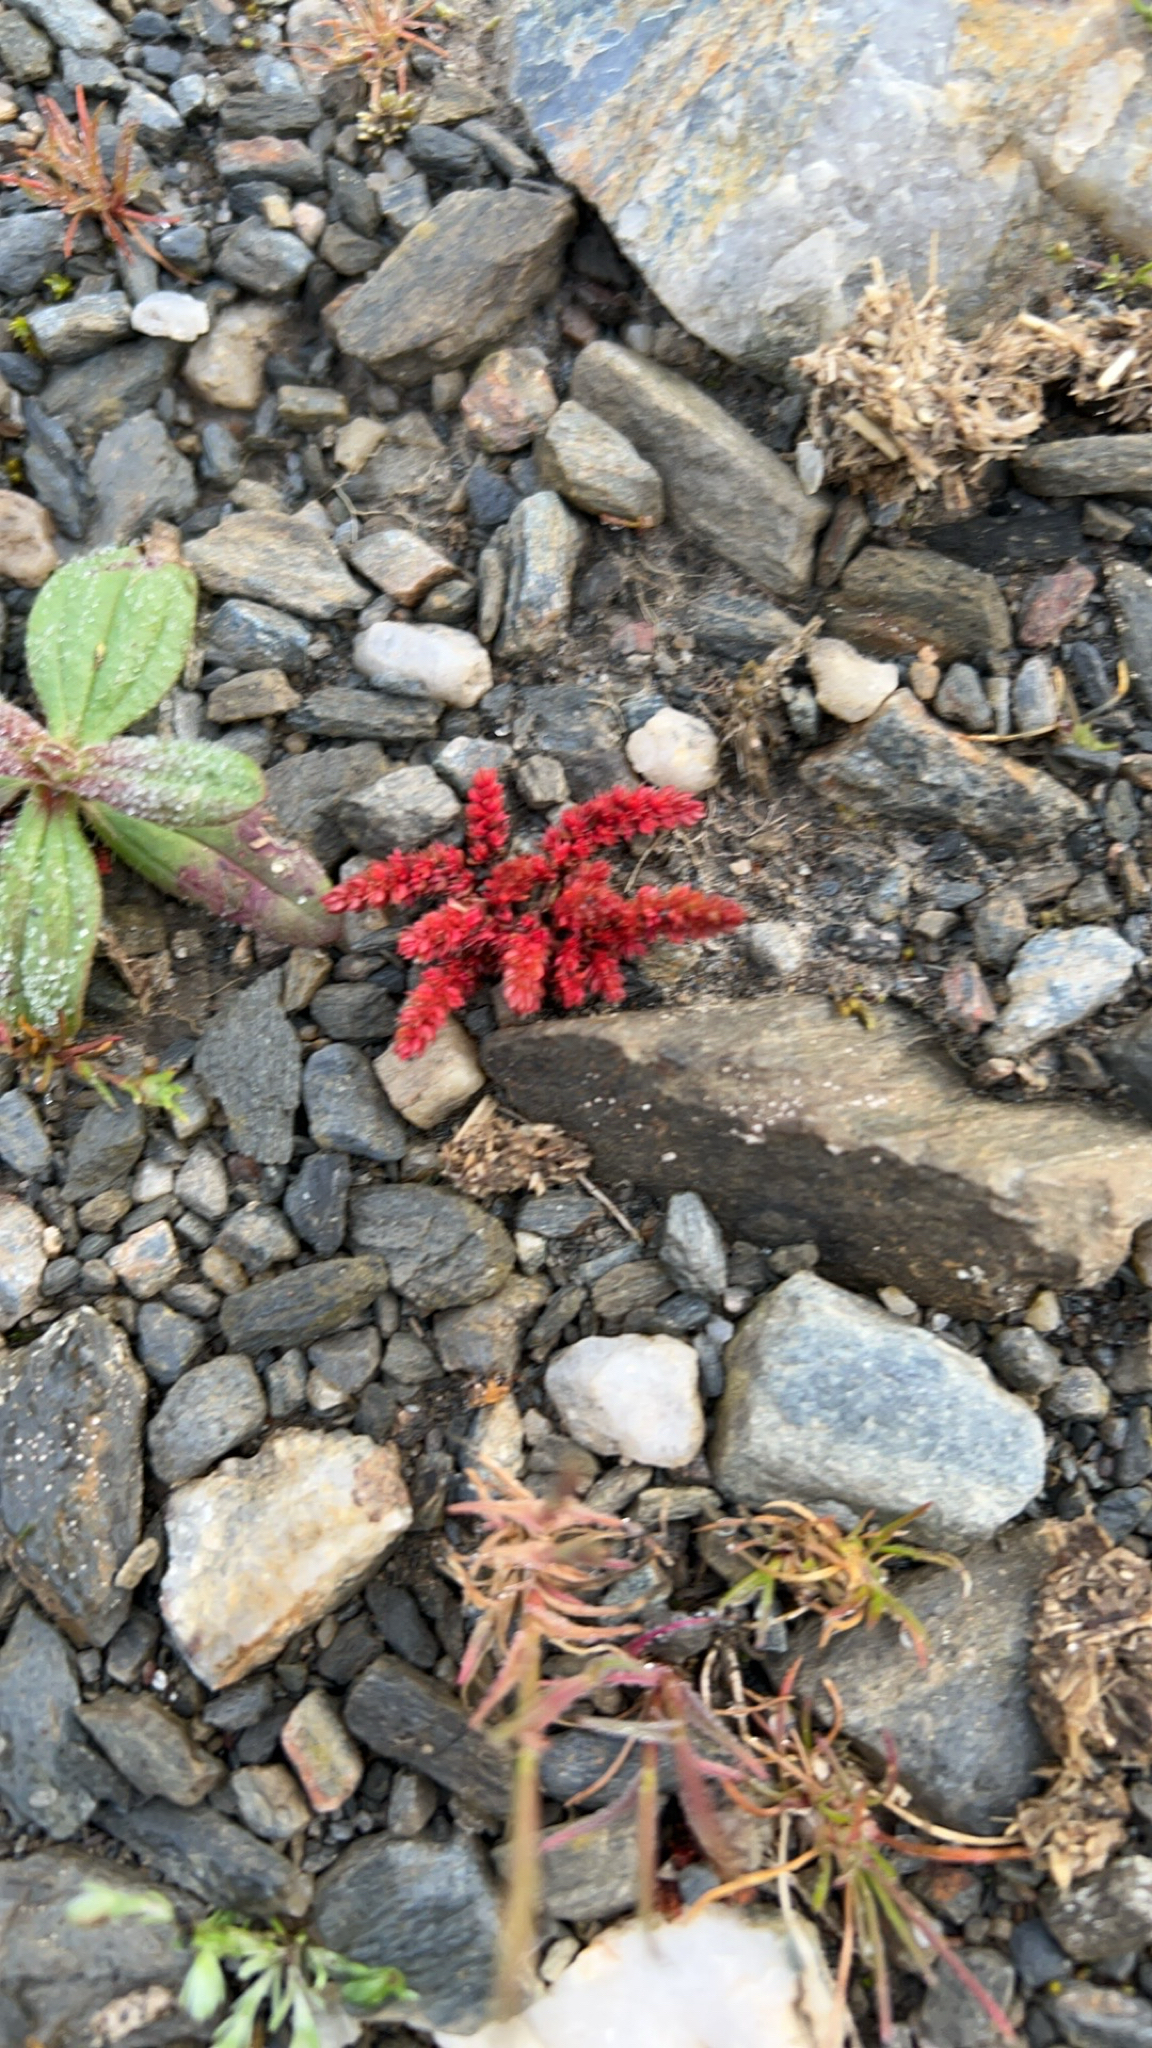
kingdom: Plantae
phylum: Tracheophyta
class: Magnoliopsida
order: Saxifragales
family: Crassulaceae
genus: Crassula
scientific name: Crassula tillaea
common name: Mossy stonecrop
